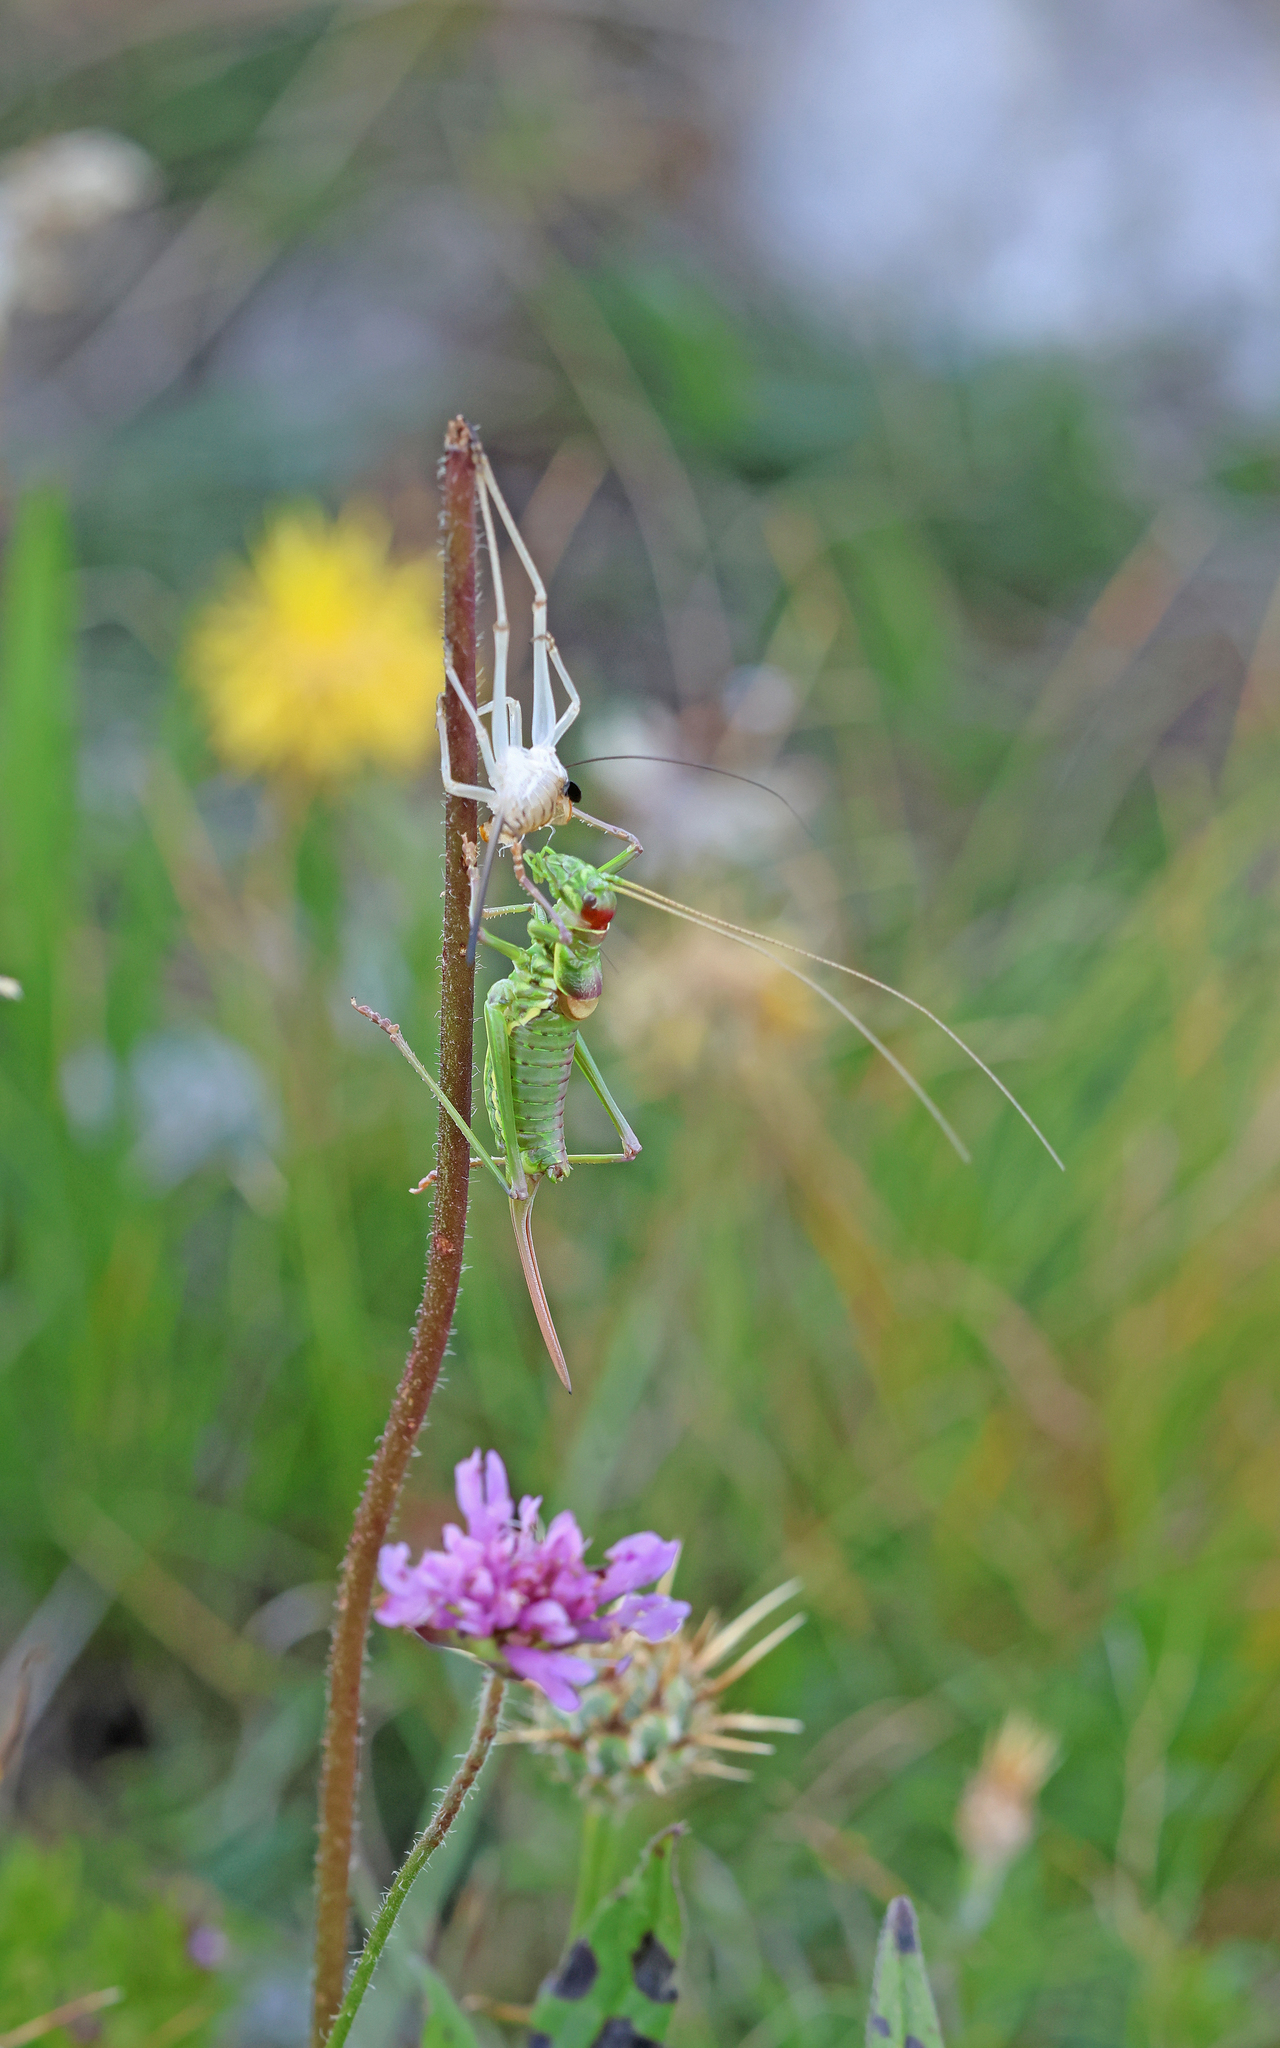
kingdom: Animalia
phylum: Arthropoda
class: Insecta
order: Orthoptera
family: Tettigoniidae
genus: Dinarippiger
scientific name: Dinarippiger discoidalis
